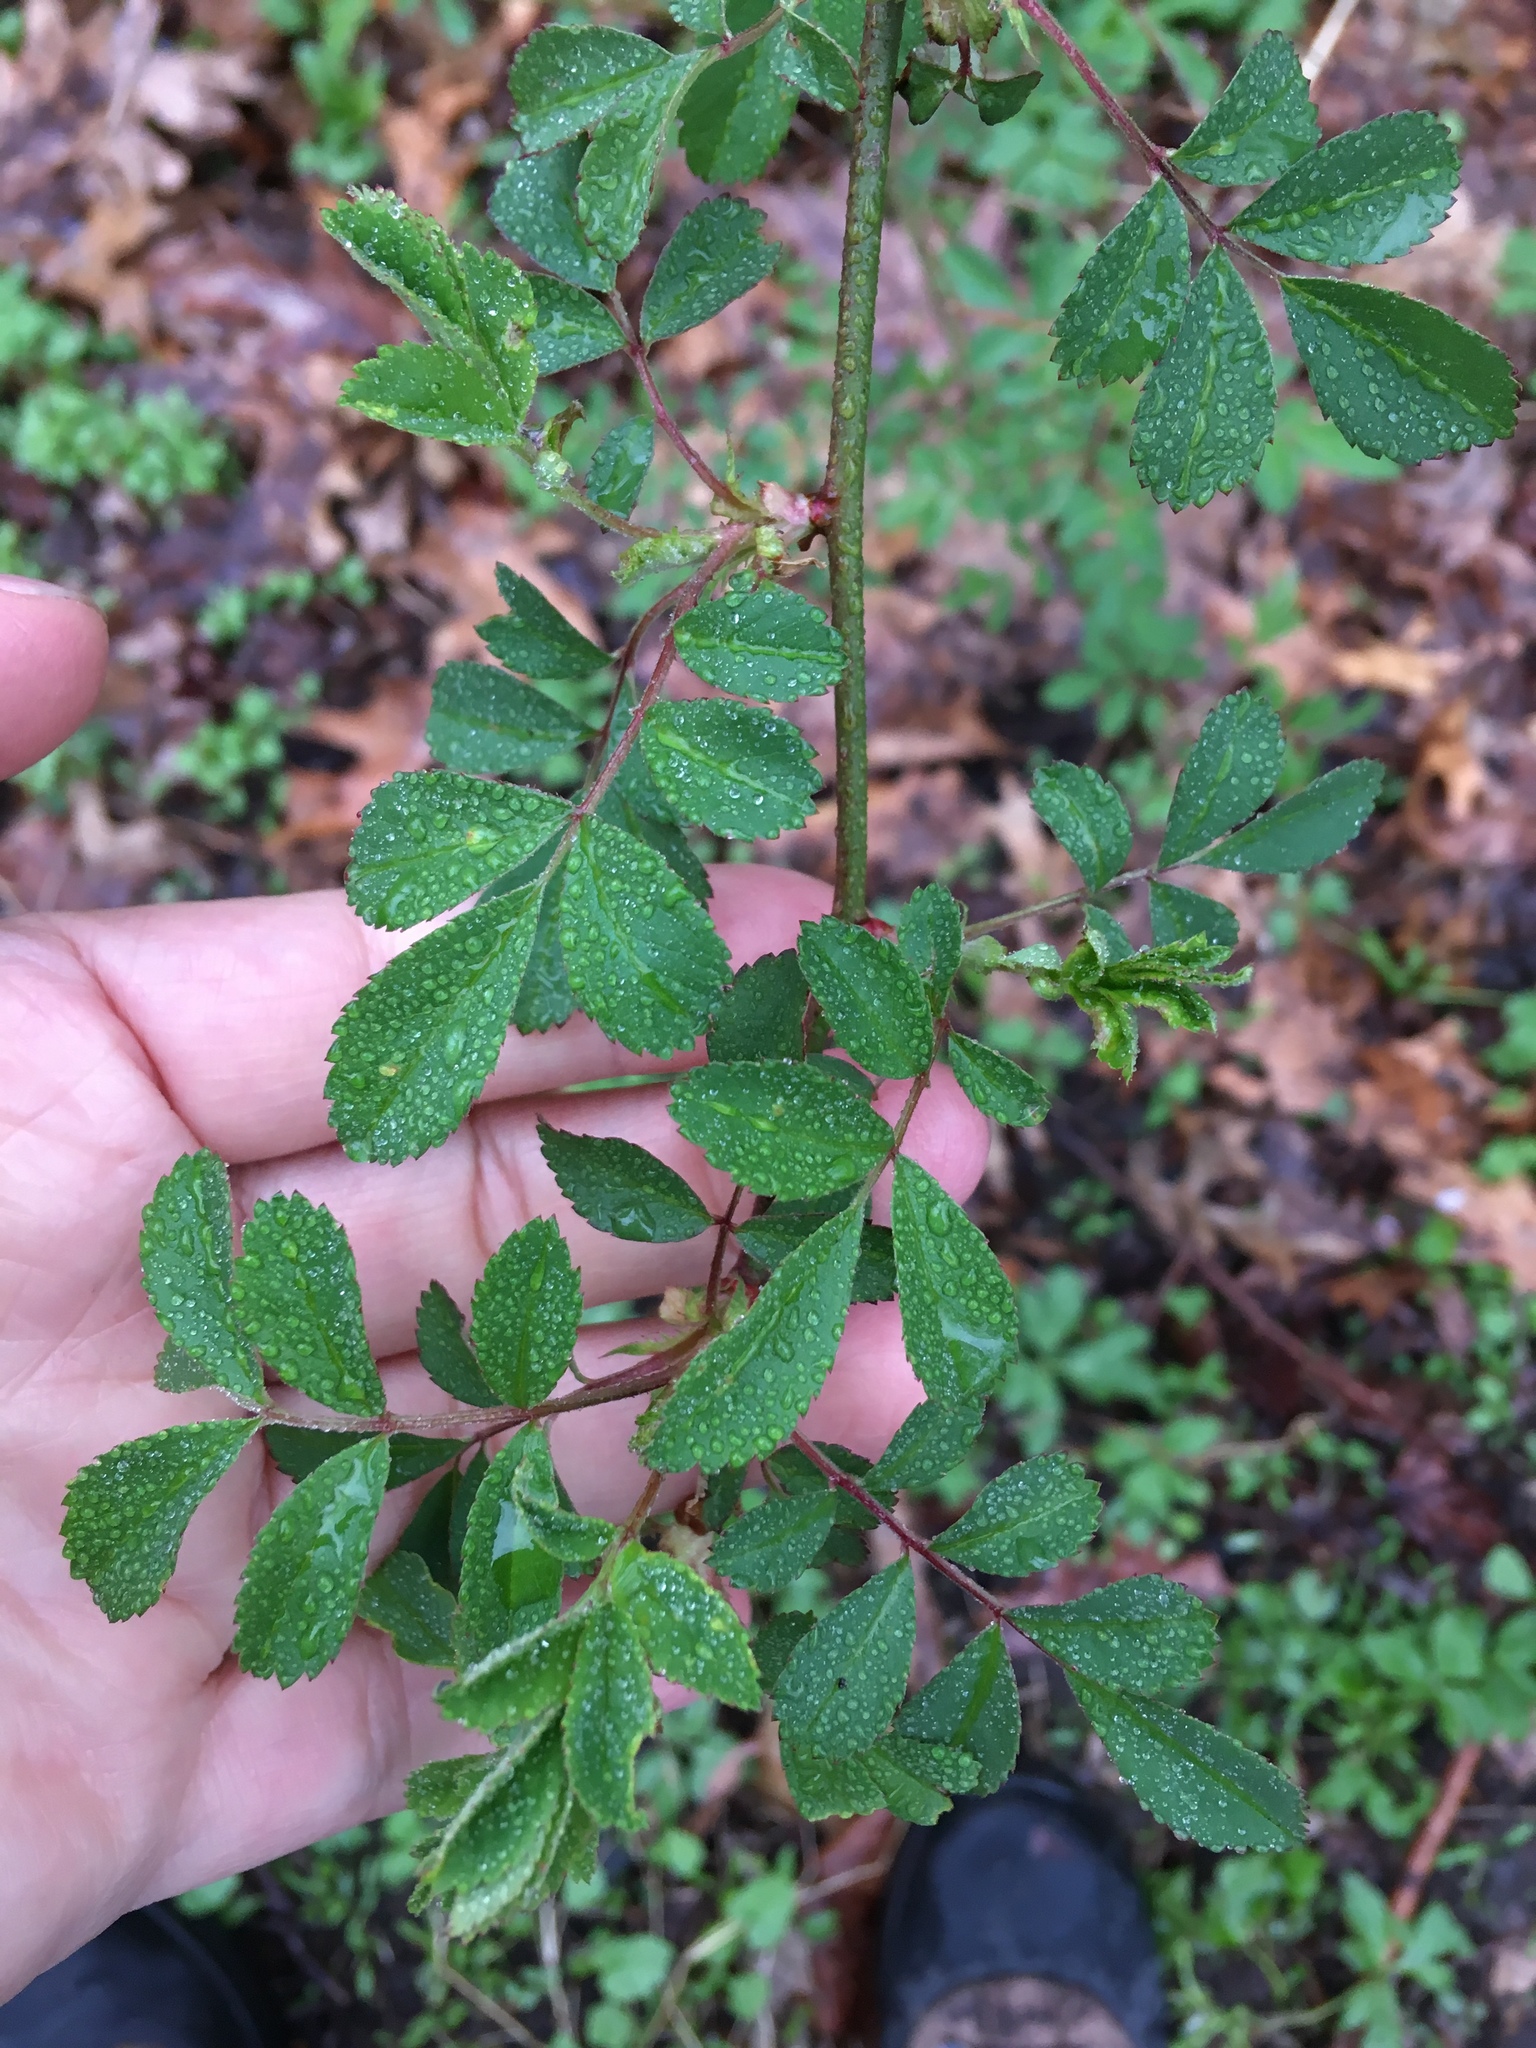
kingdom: Plantae
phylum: Tracheophyta
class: Magnoliopsida
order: Rosales
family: Rosaceae
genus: Rosa
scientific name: Rosa multiflora
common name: Multiflora rose
